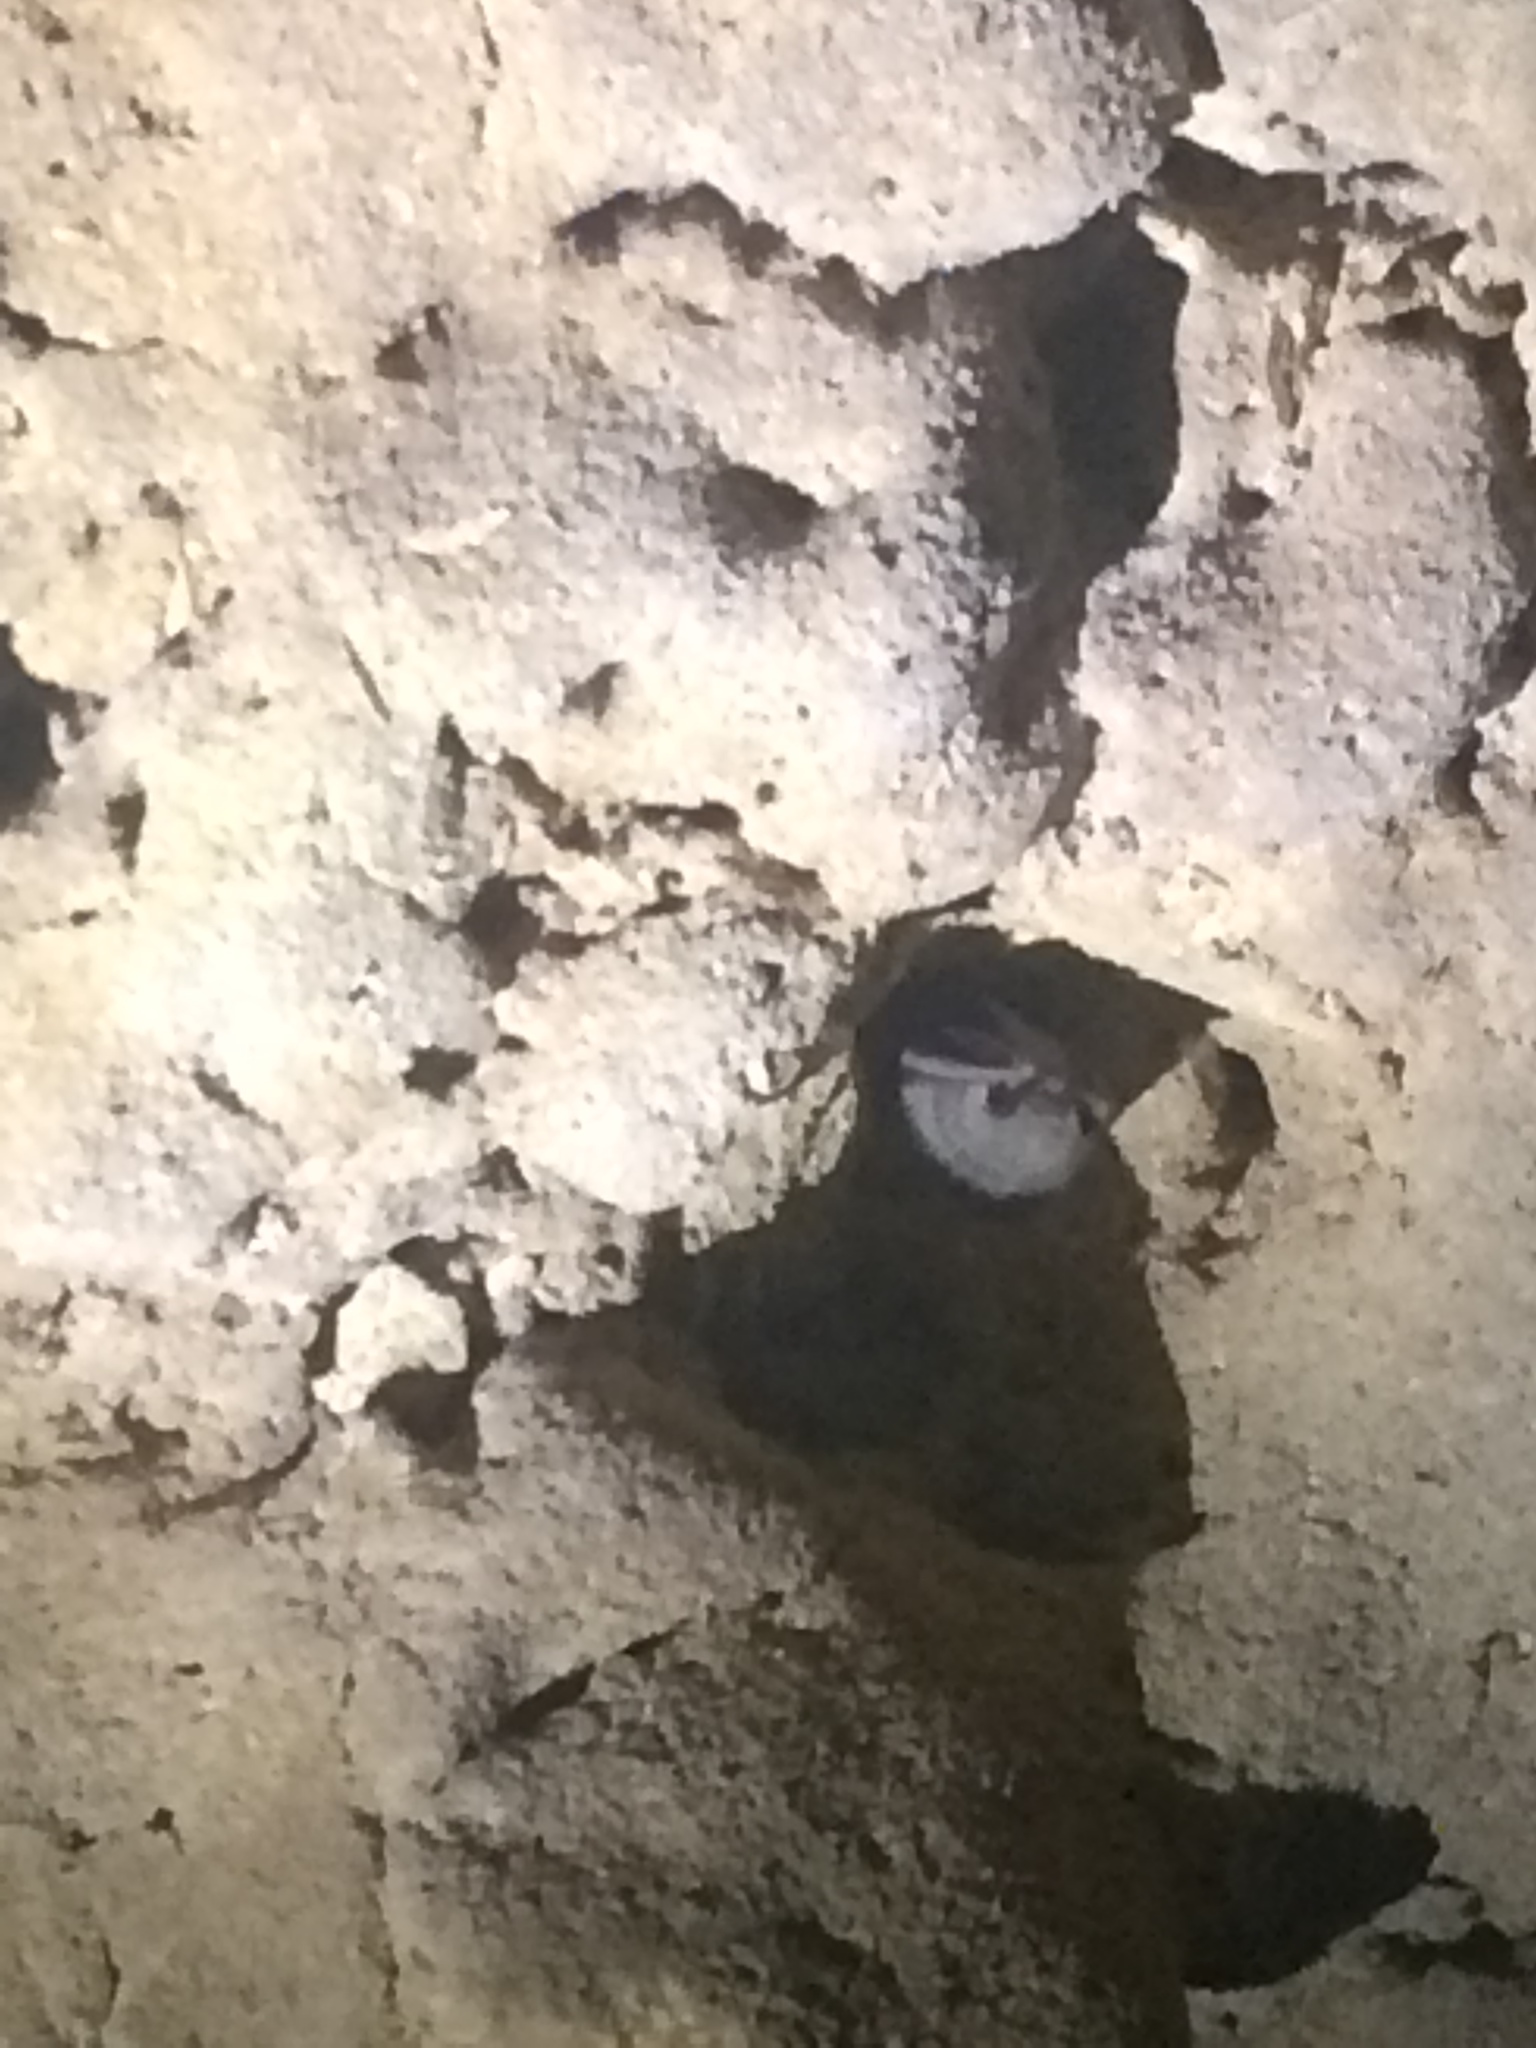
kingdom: Animalia
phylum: Chordata
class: Mammalia
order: Chiroptera
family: Vespertilionidae
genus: Perimyotis
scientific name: Perimyotis subflavus
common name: Eastern pipistrelle
